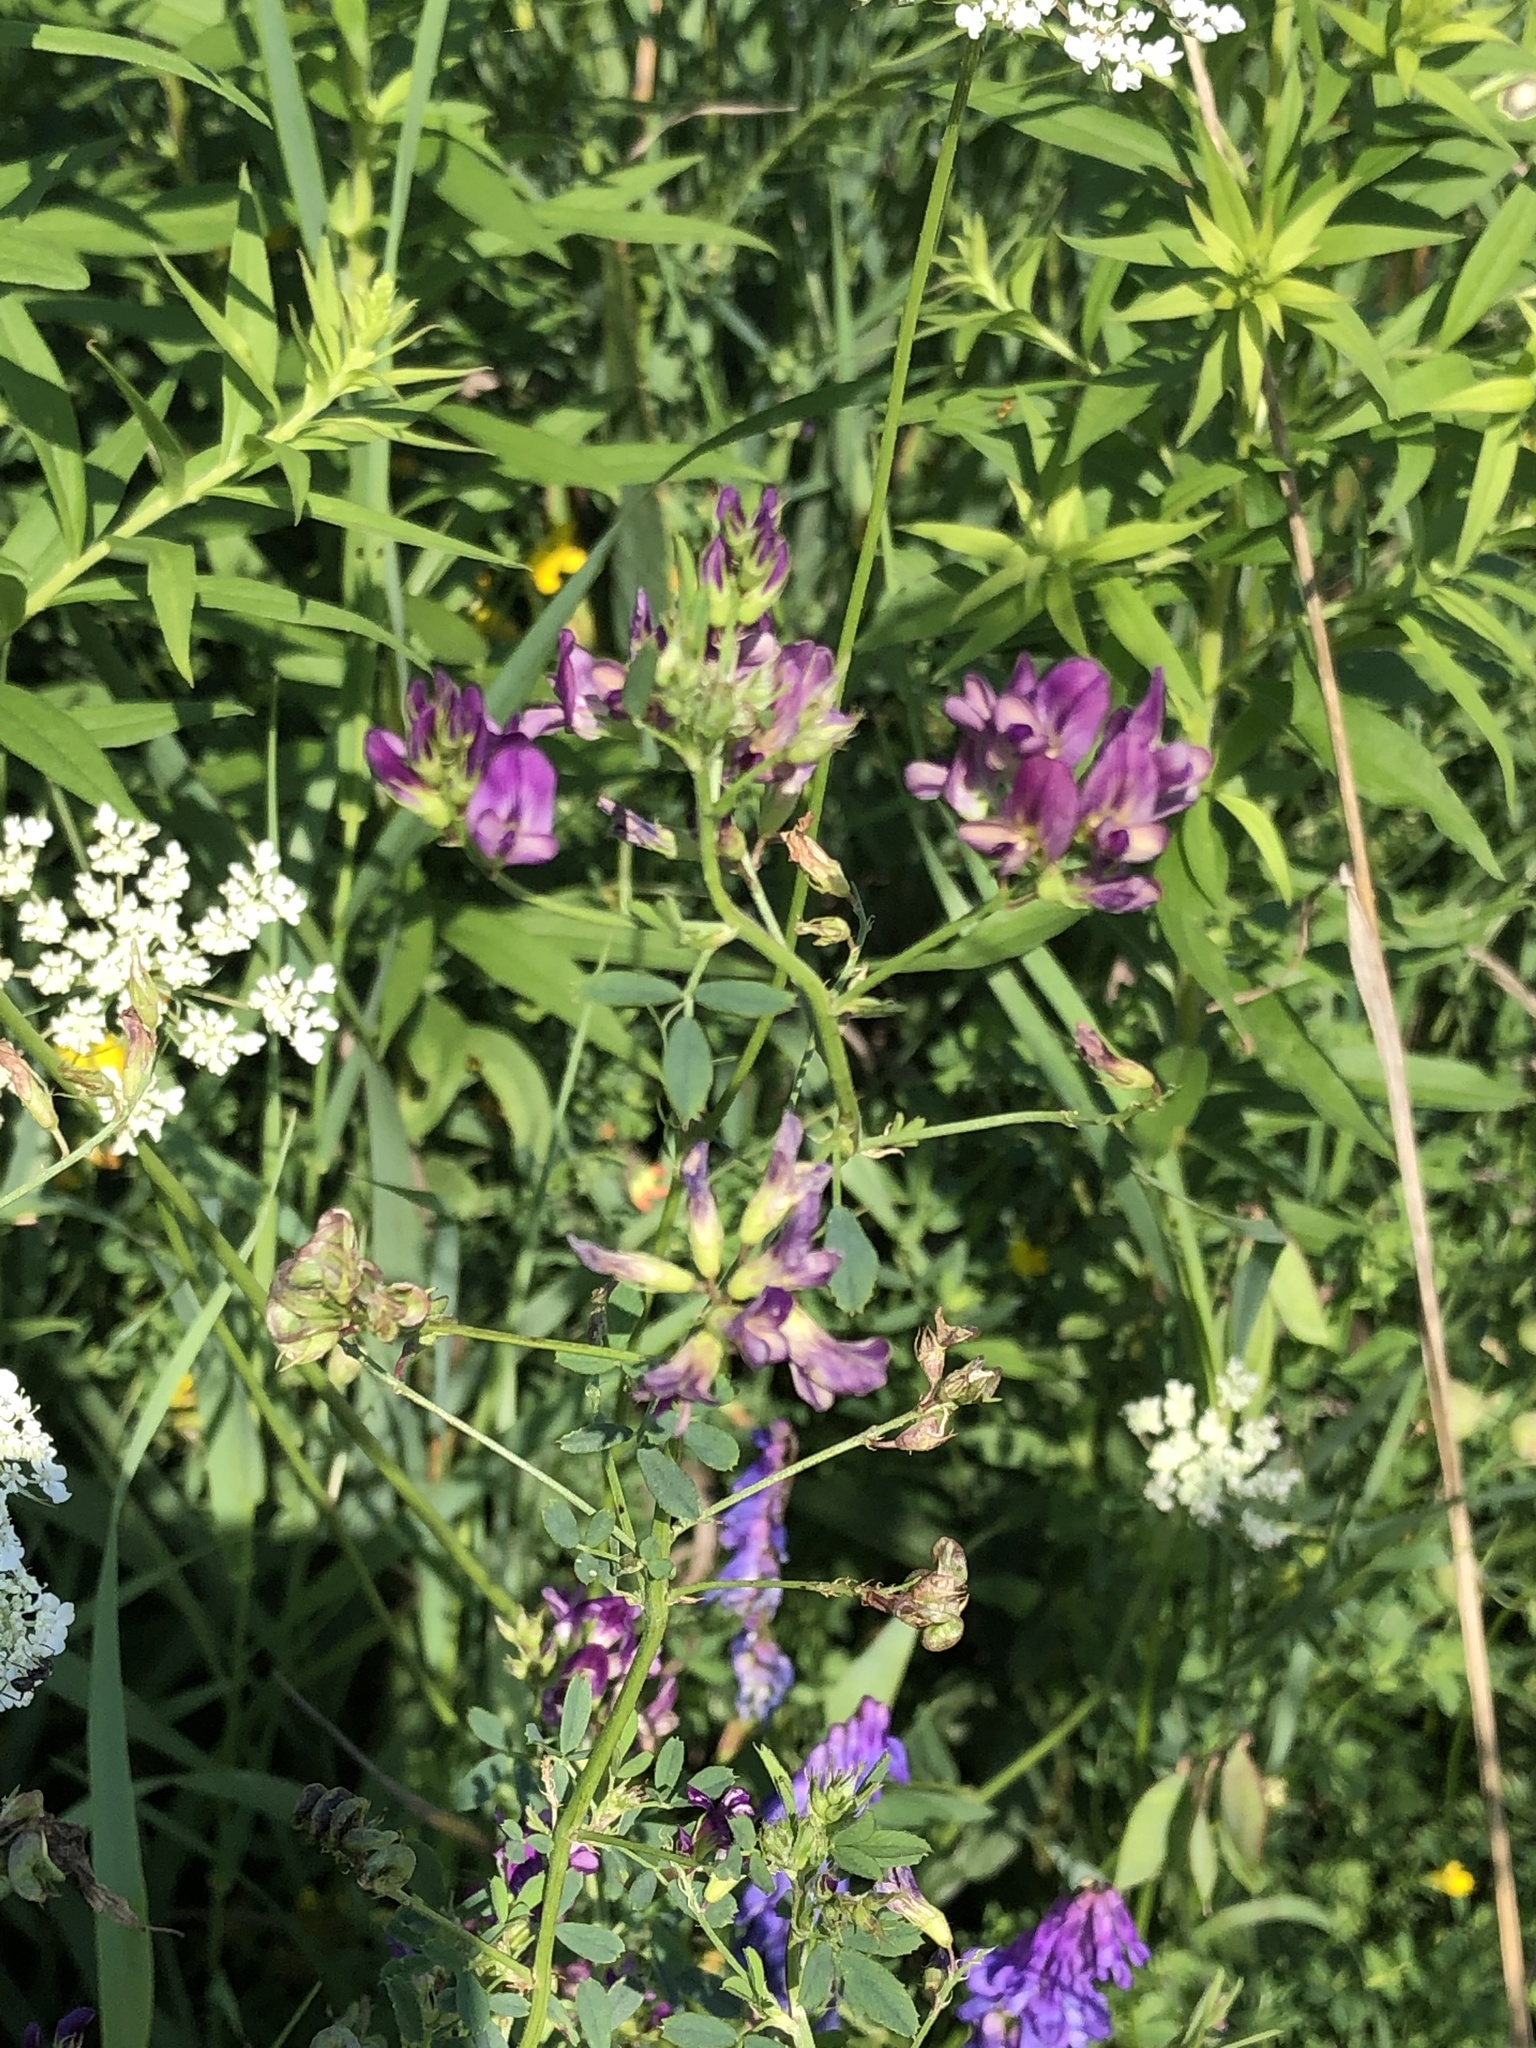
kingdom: Plantae
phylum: Tracheophyta
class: Magnoliopsida
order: Fabales
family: Fabaceae
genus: Medicago
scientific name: Medicago sativa
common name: Alfalfa
